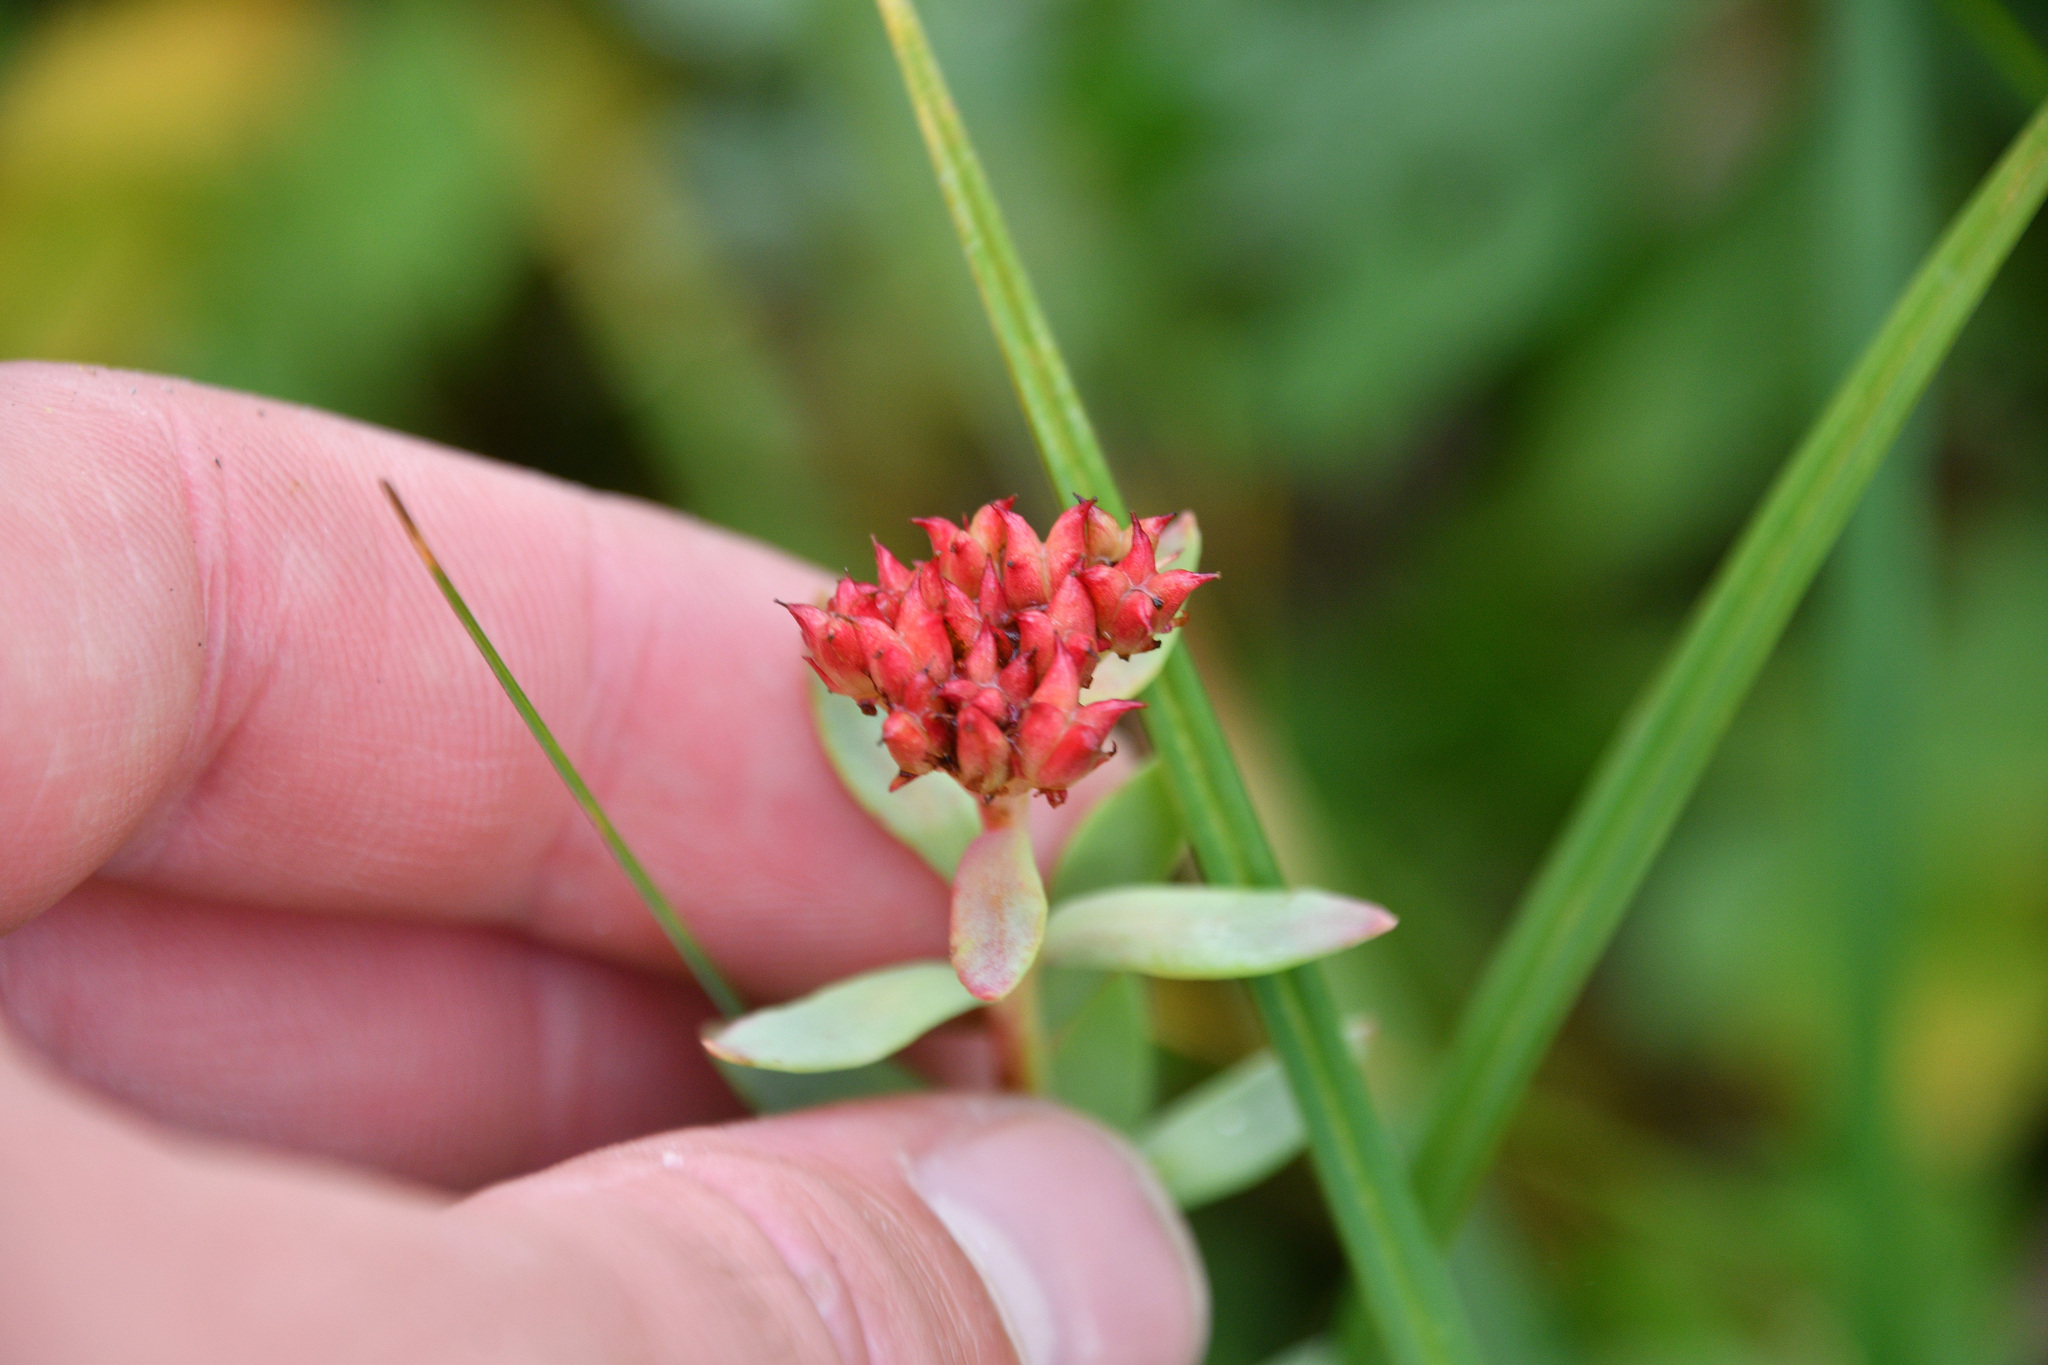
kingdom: Plantae
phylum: Tracheophyta
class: Magnoliopsida
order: Saxifragales
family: Crassulaceae
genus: Rhodiola
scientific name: Rhodiola integrifolia
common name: Western roseroot
